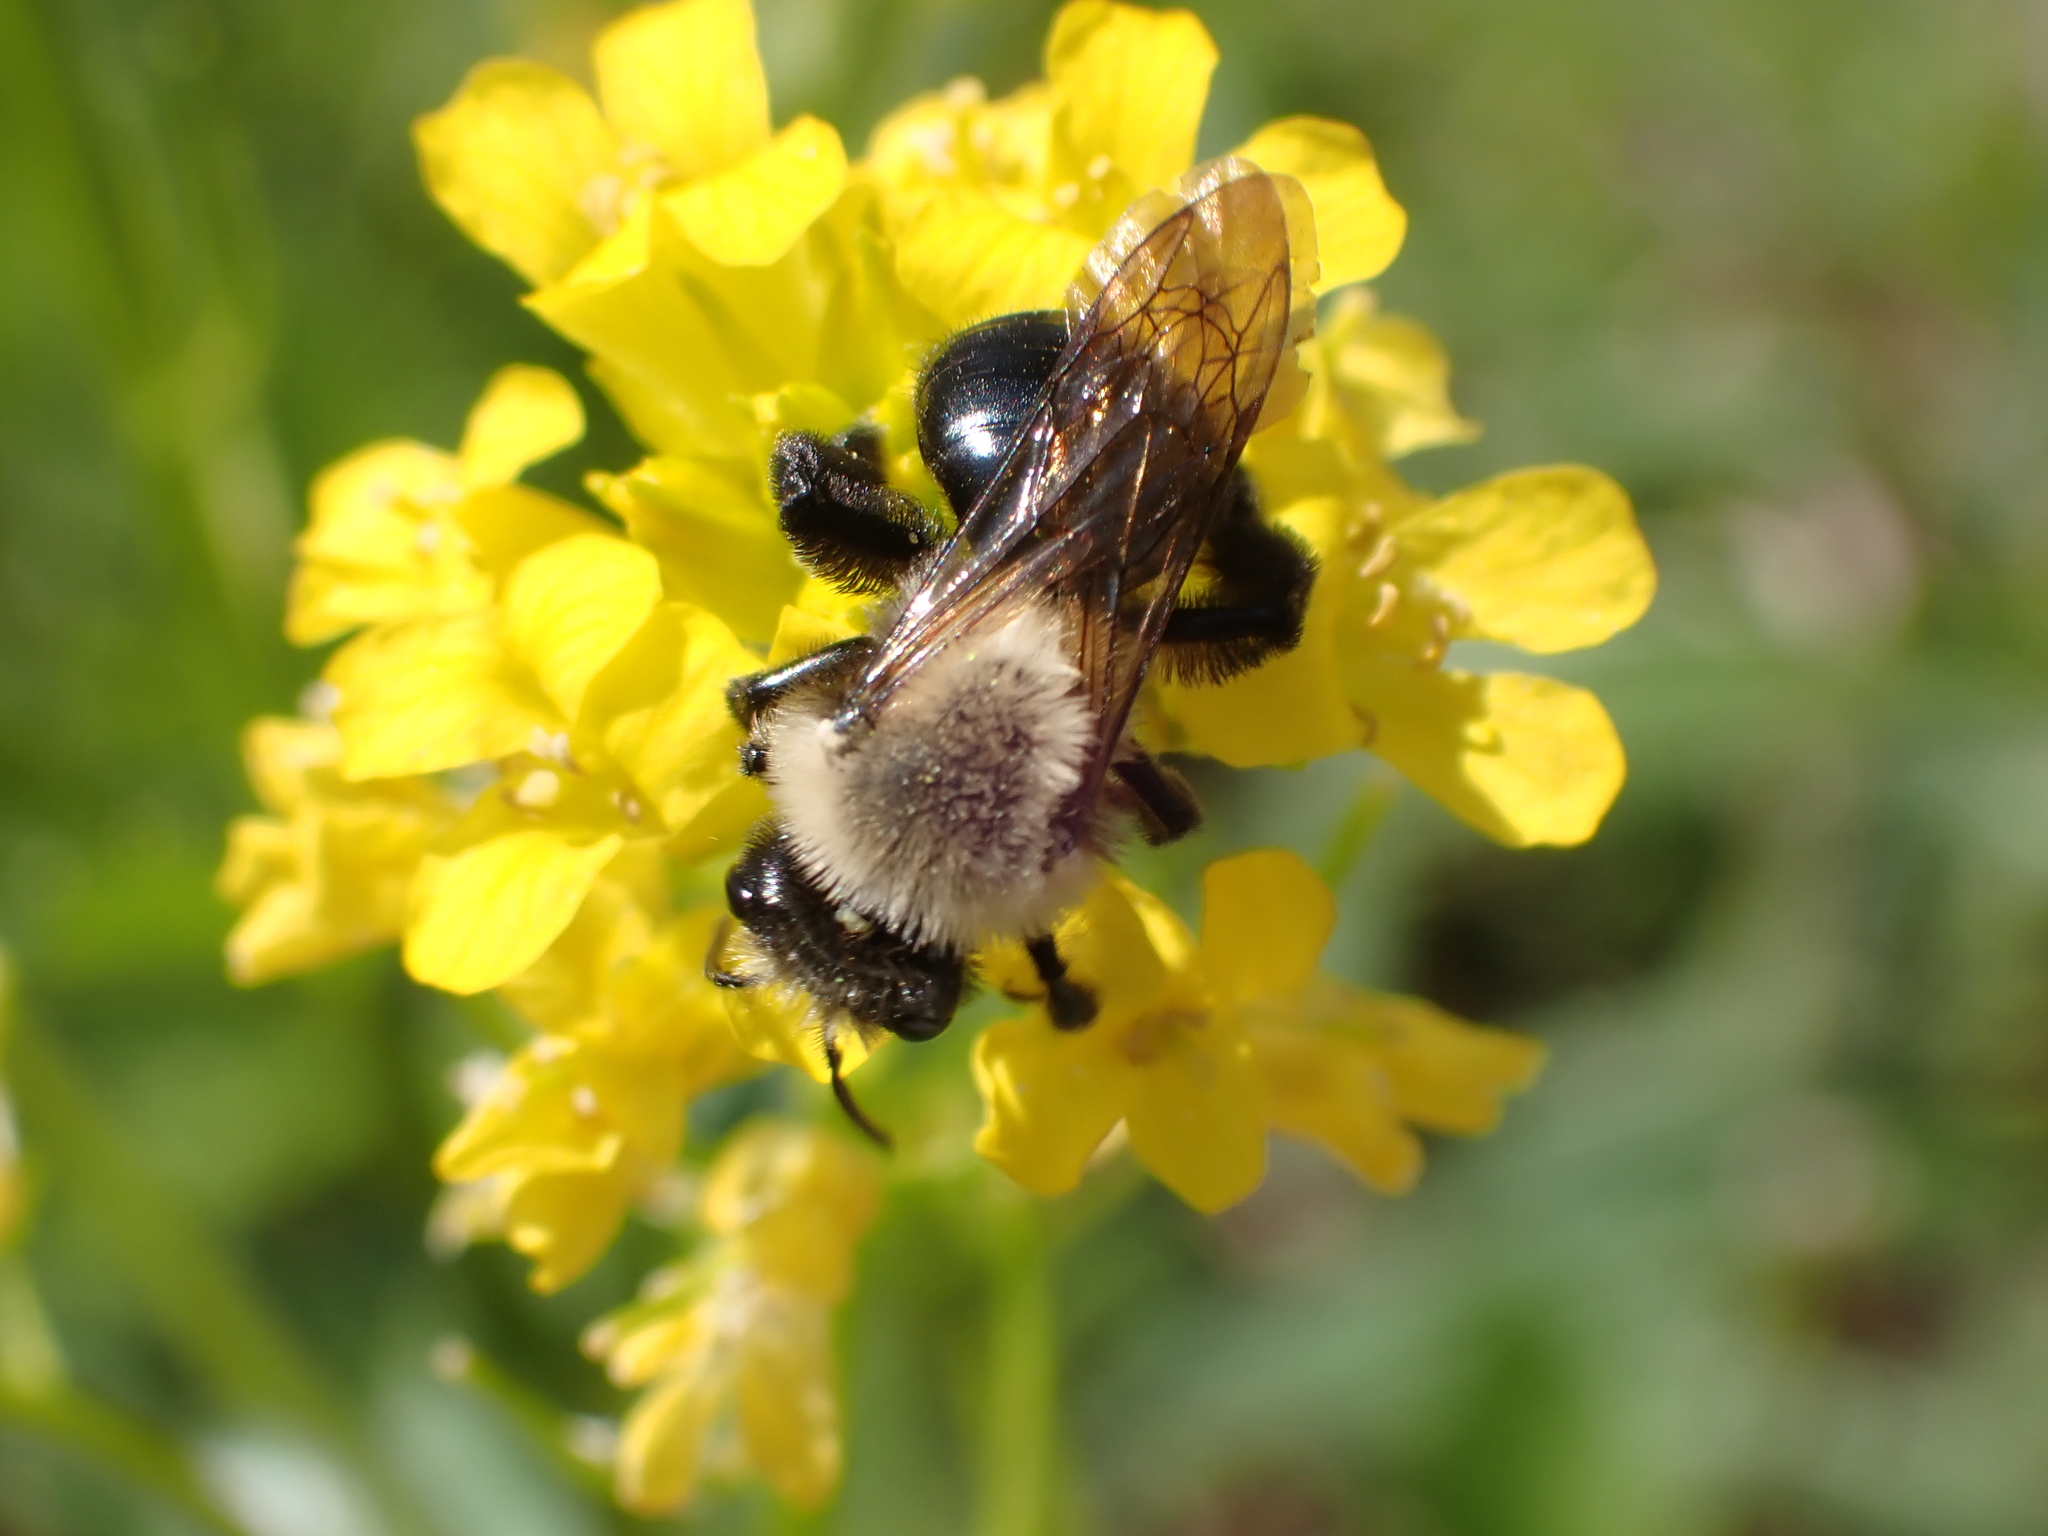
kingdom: Animalia
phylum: Arthropoda
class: Insecta
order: Hymenoptera
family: Andrenidae
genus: Andrena
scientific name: Andrena carlini
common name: Carlin's mining bee
